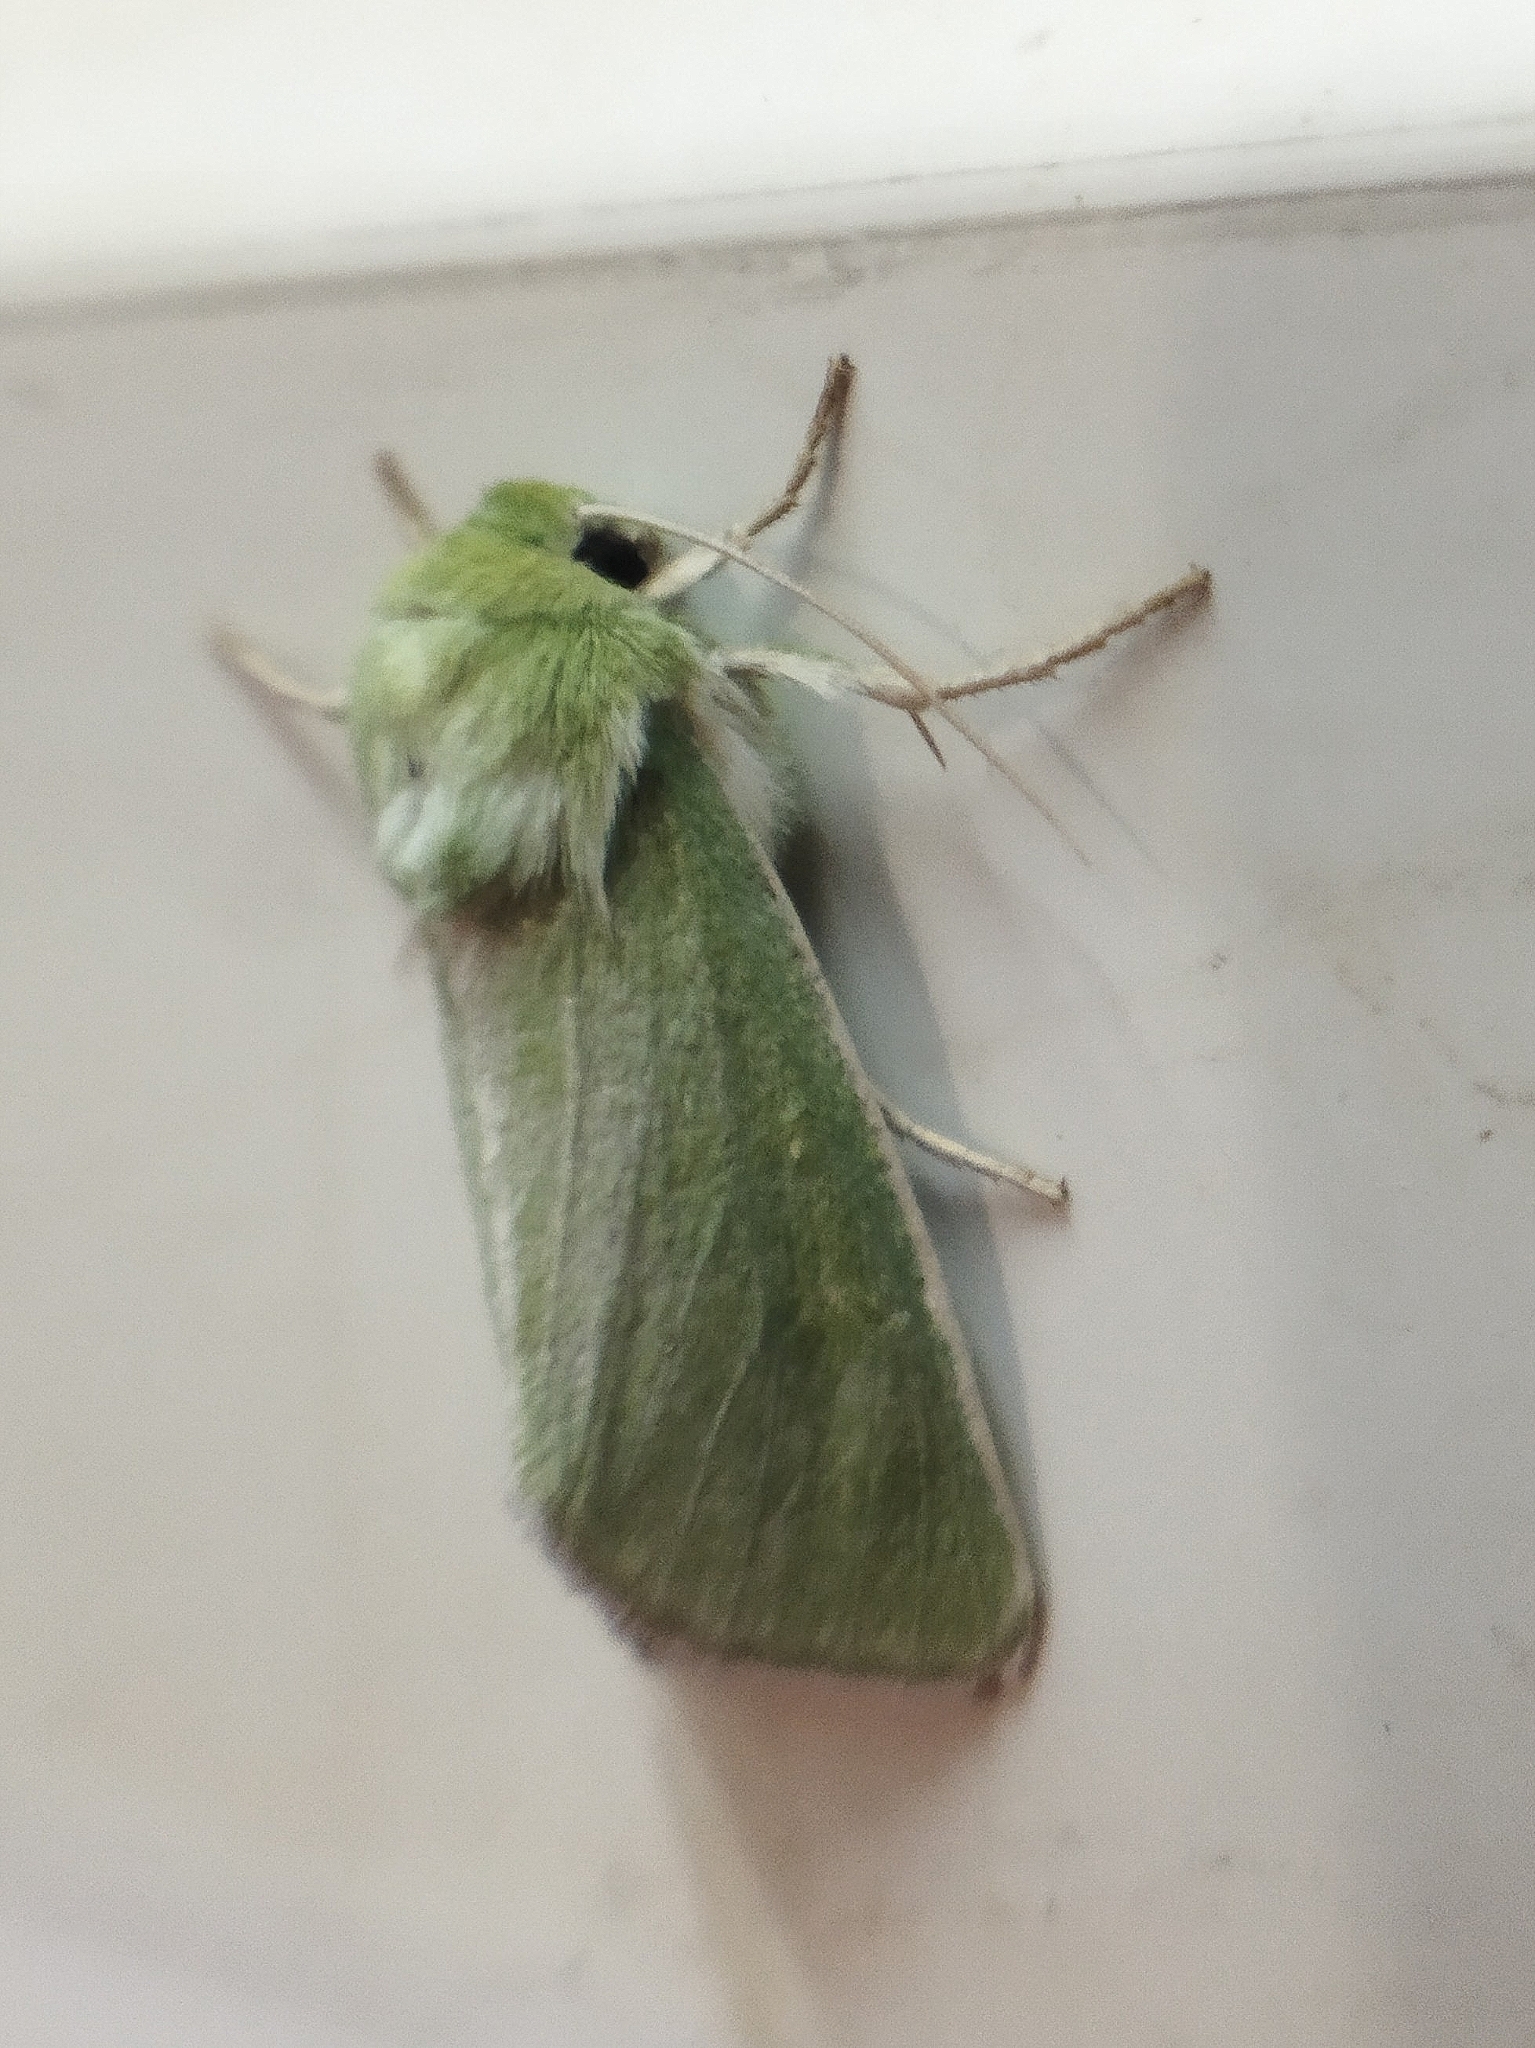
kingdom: Animalia
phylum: Arthropoda
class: Insecta
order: Lepidoptera
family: Noctuidae
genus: Calamia
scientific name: Calamia tridens
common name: Burren green
